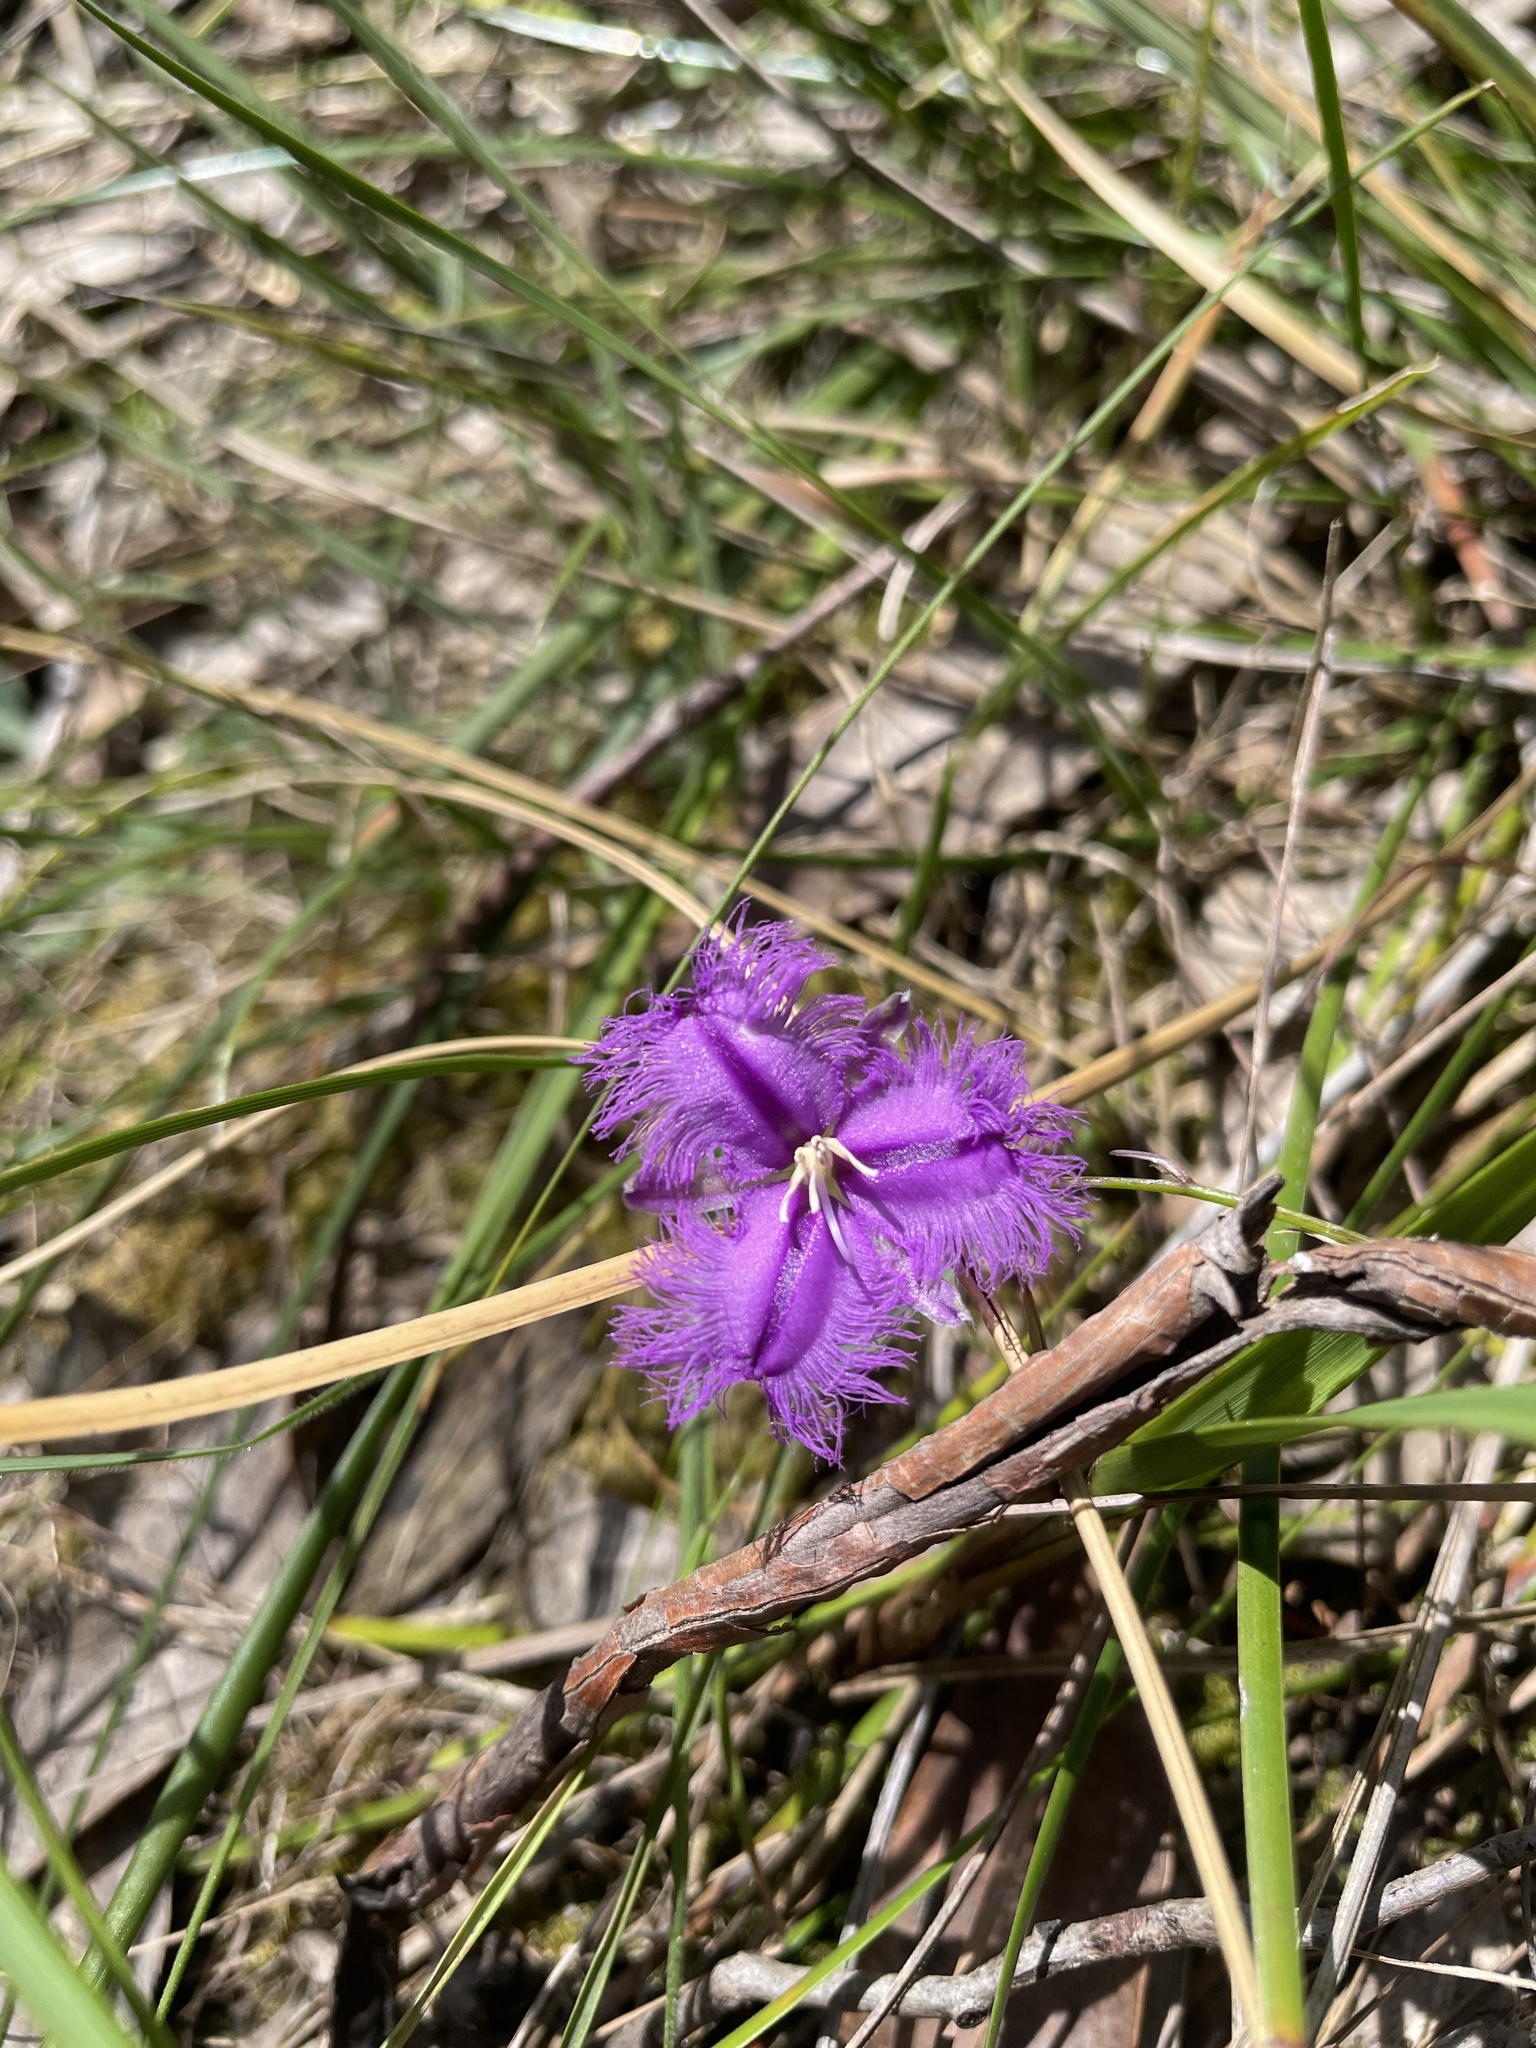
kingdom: Plantae
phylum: Tracheophyta
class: Liliopsida
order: Asparagales
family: Asparagaceae
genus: Thysanotus
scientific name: Thysanotus tuberosus
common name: Common fringed-lily
